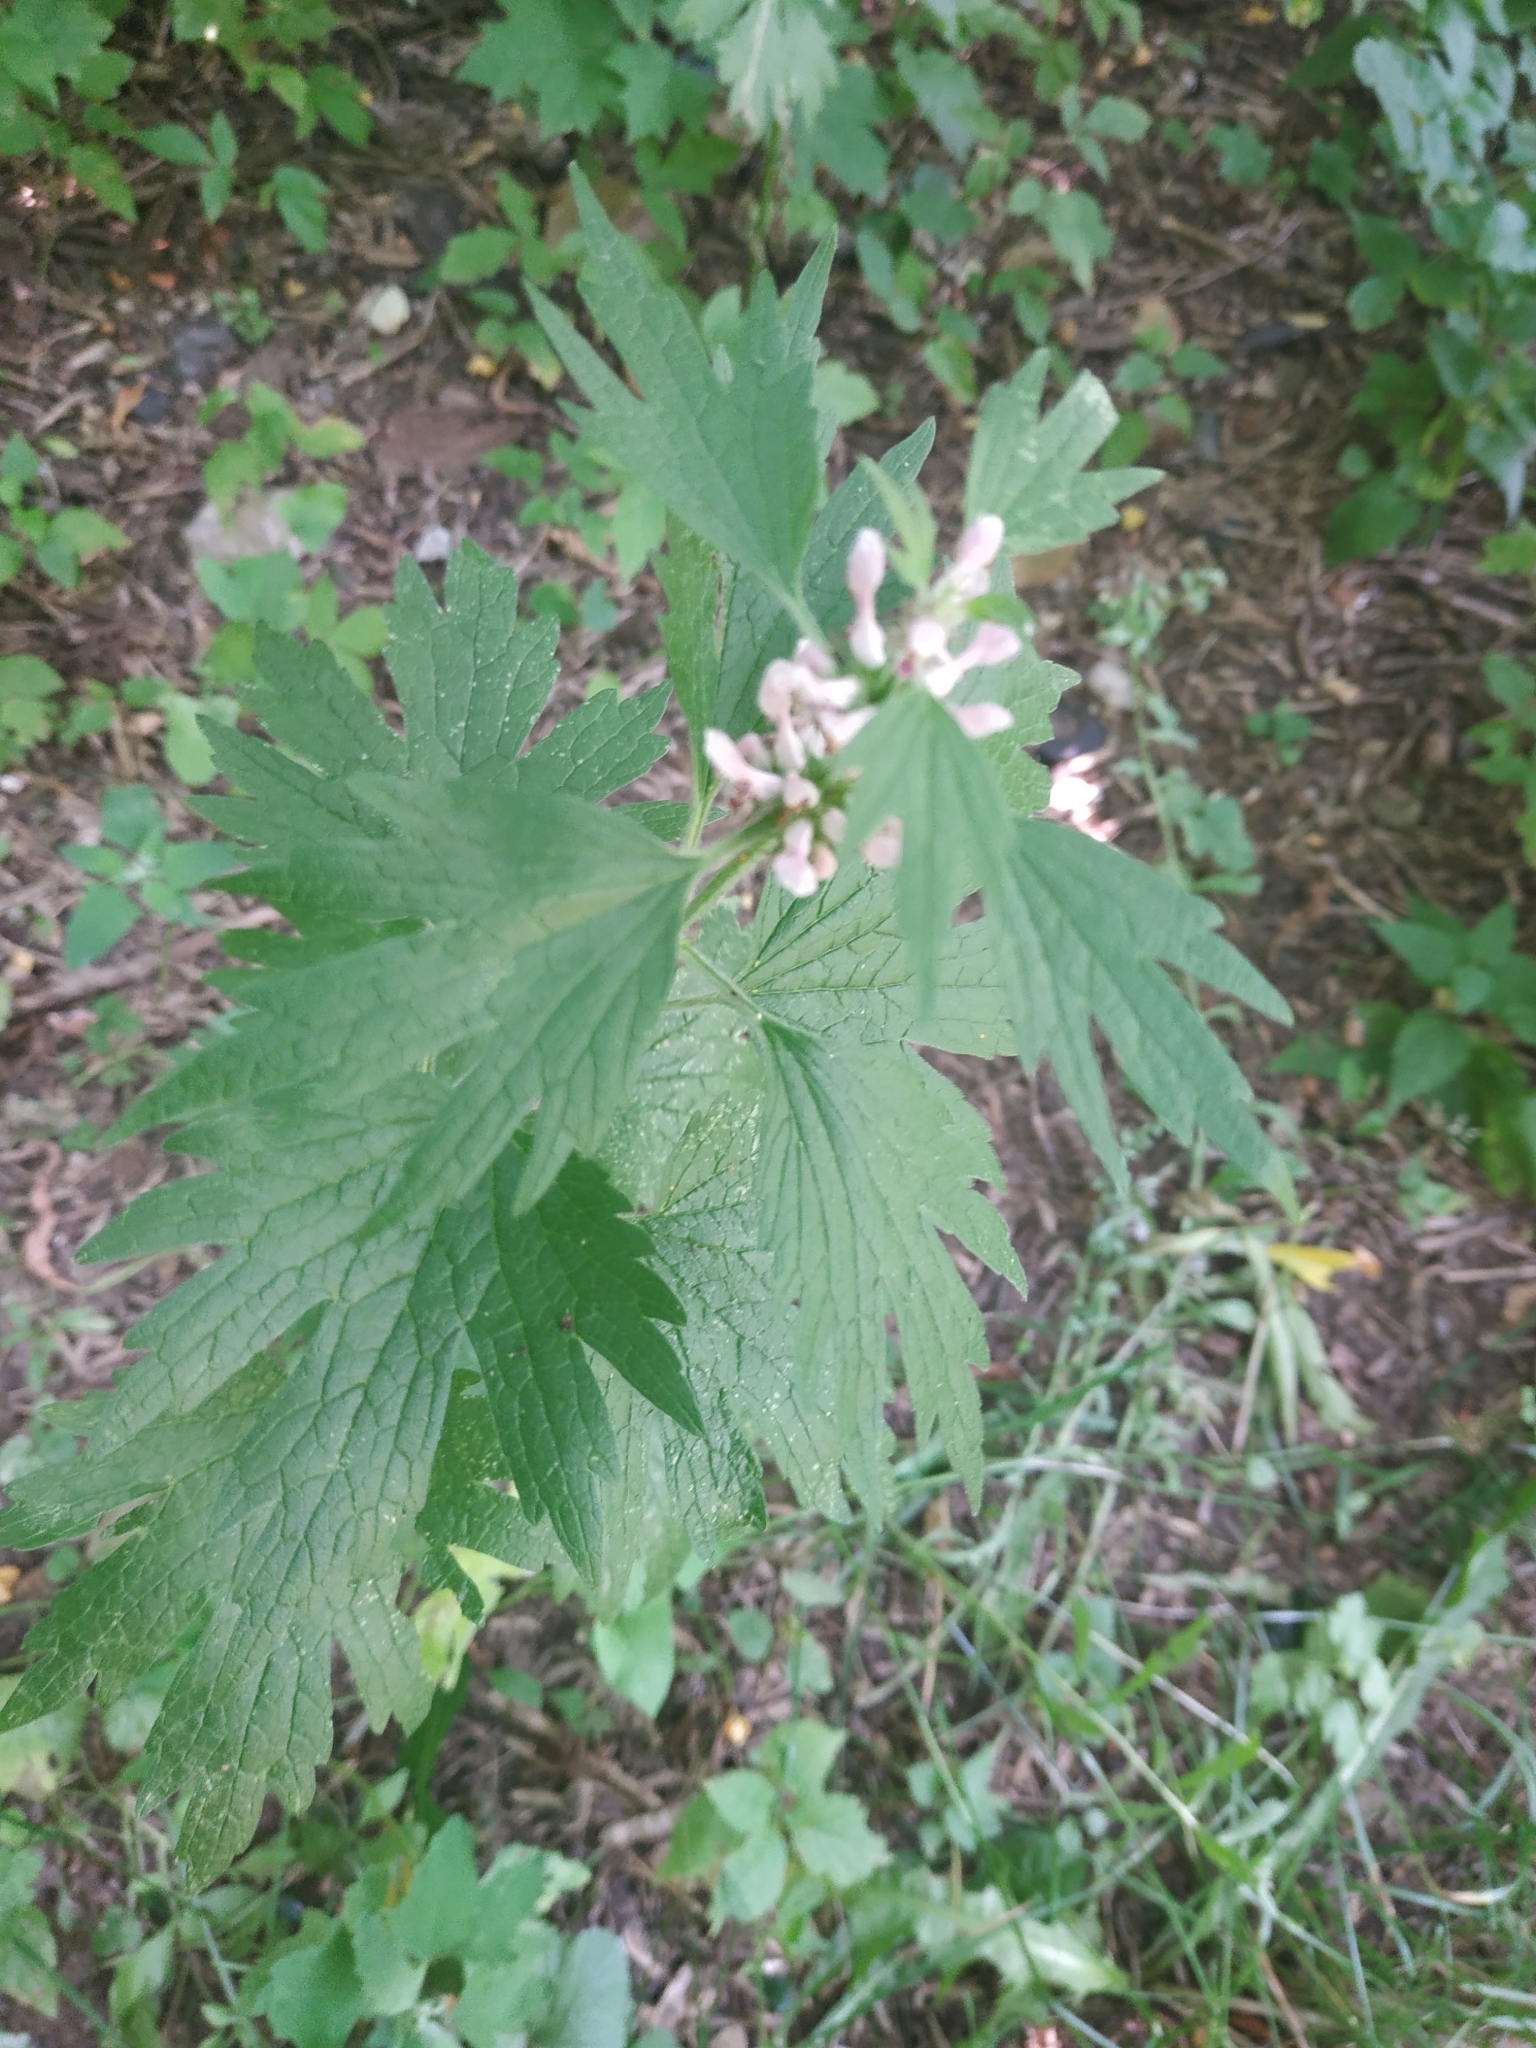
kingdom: Plantae
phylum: Tracheophyta
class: Magnoliopsida
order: Lamiales
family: Lamiaceae
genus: Leonurus
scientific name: Leonurus quinquelobatus
